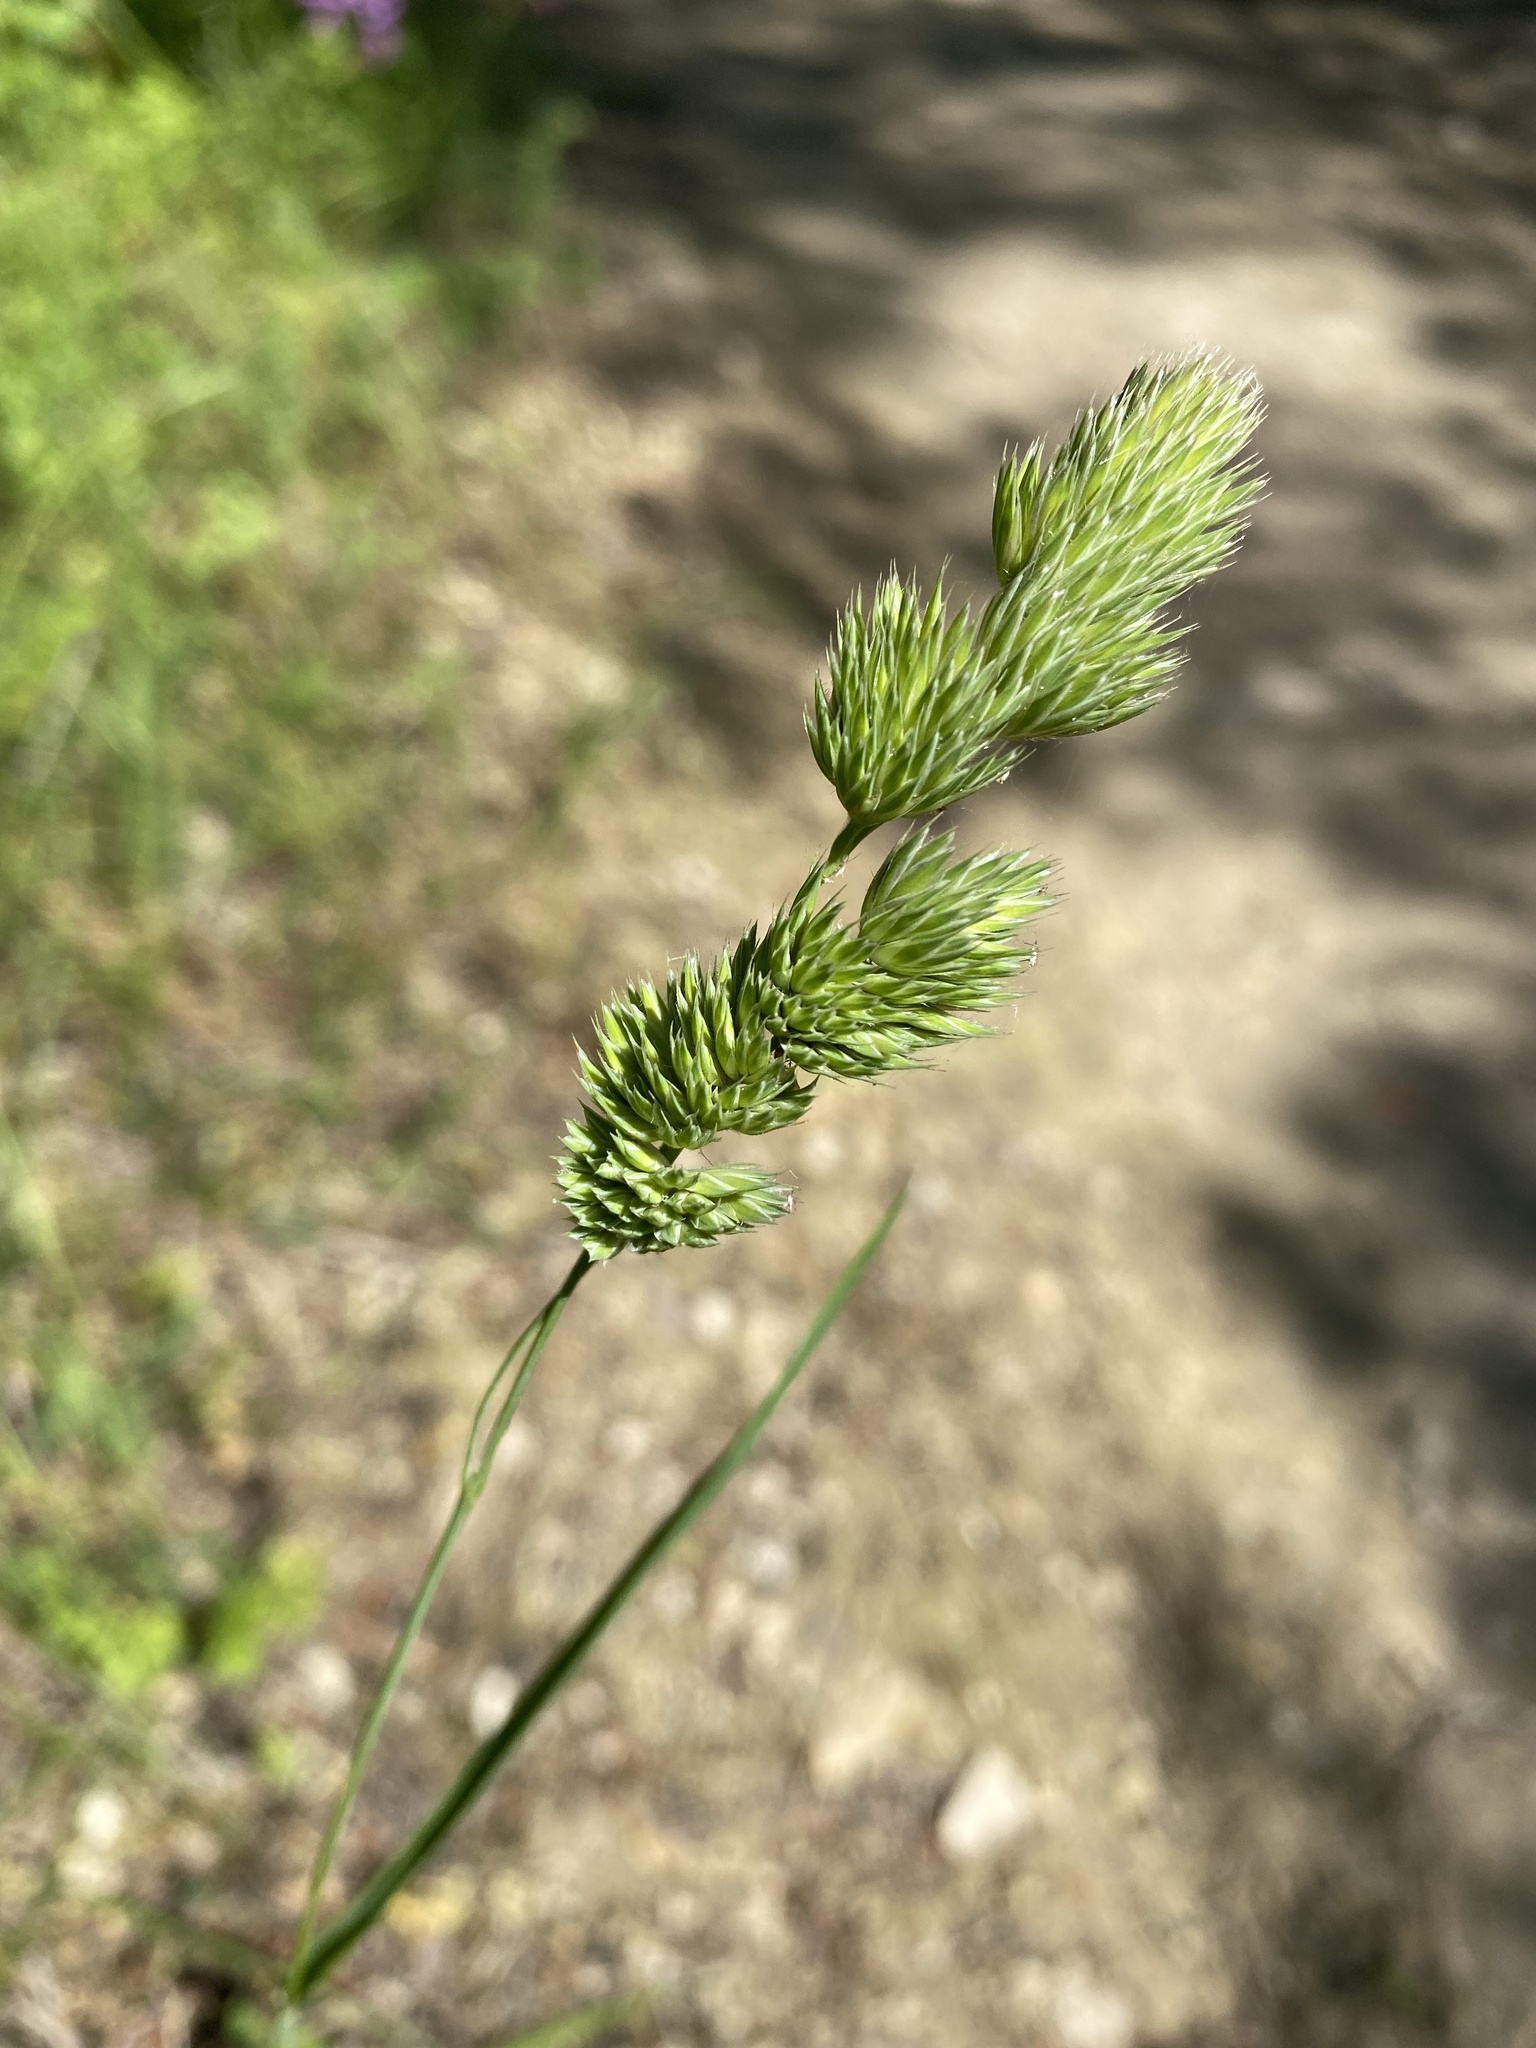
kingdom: Plantae
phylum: Tracheophyta
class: Liliopsida
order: Poales
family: Poaceae
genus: Dactylis
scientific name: Dactylis glomerata
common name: Orchardgrass
